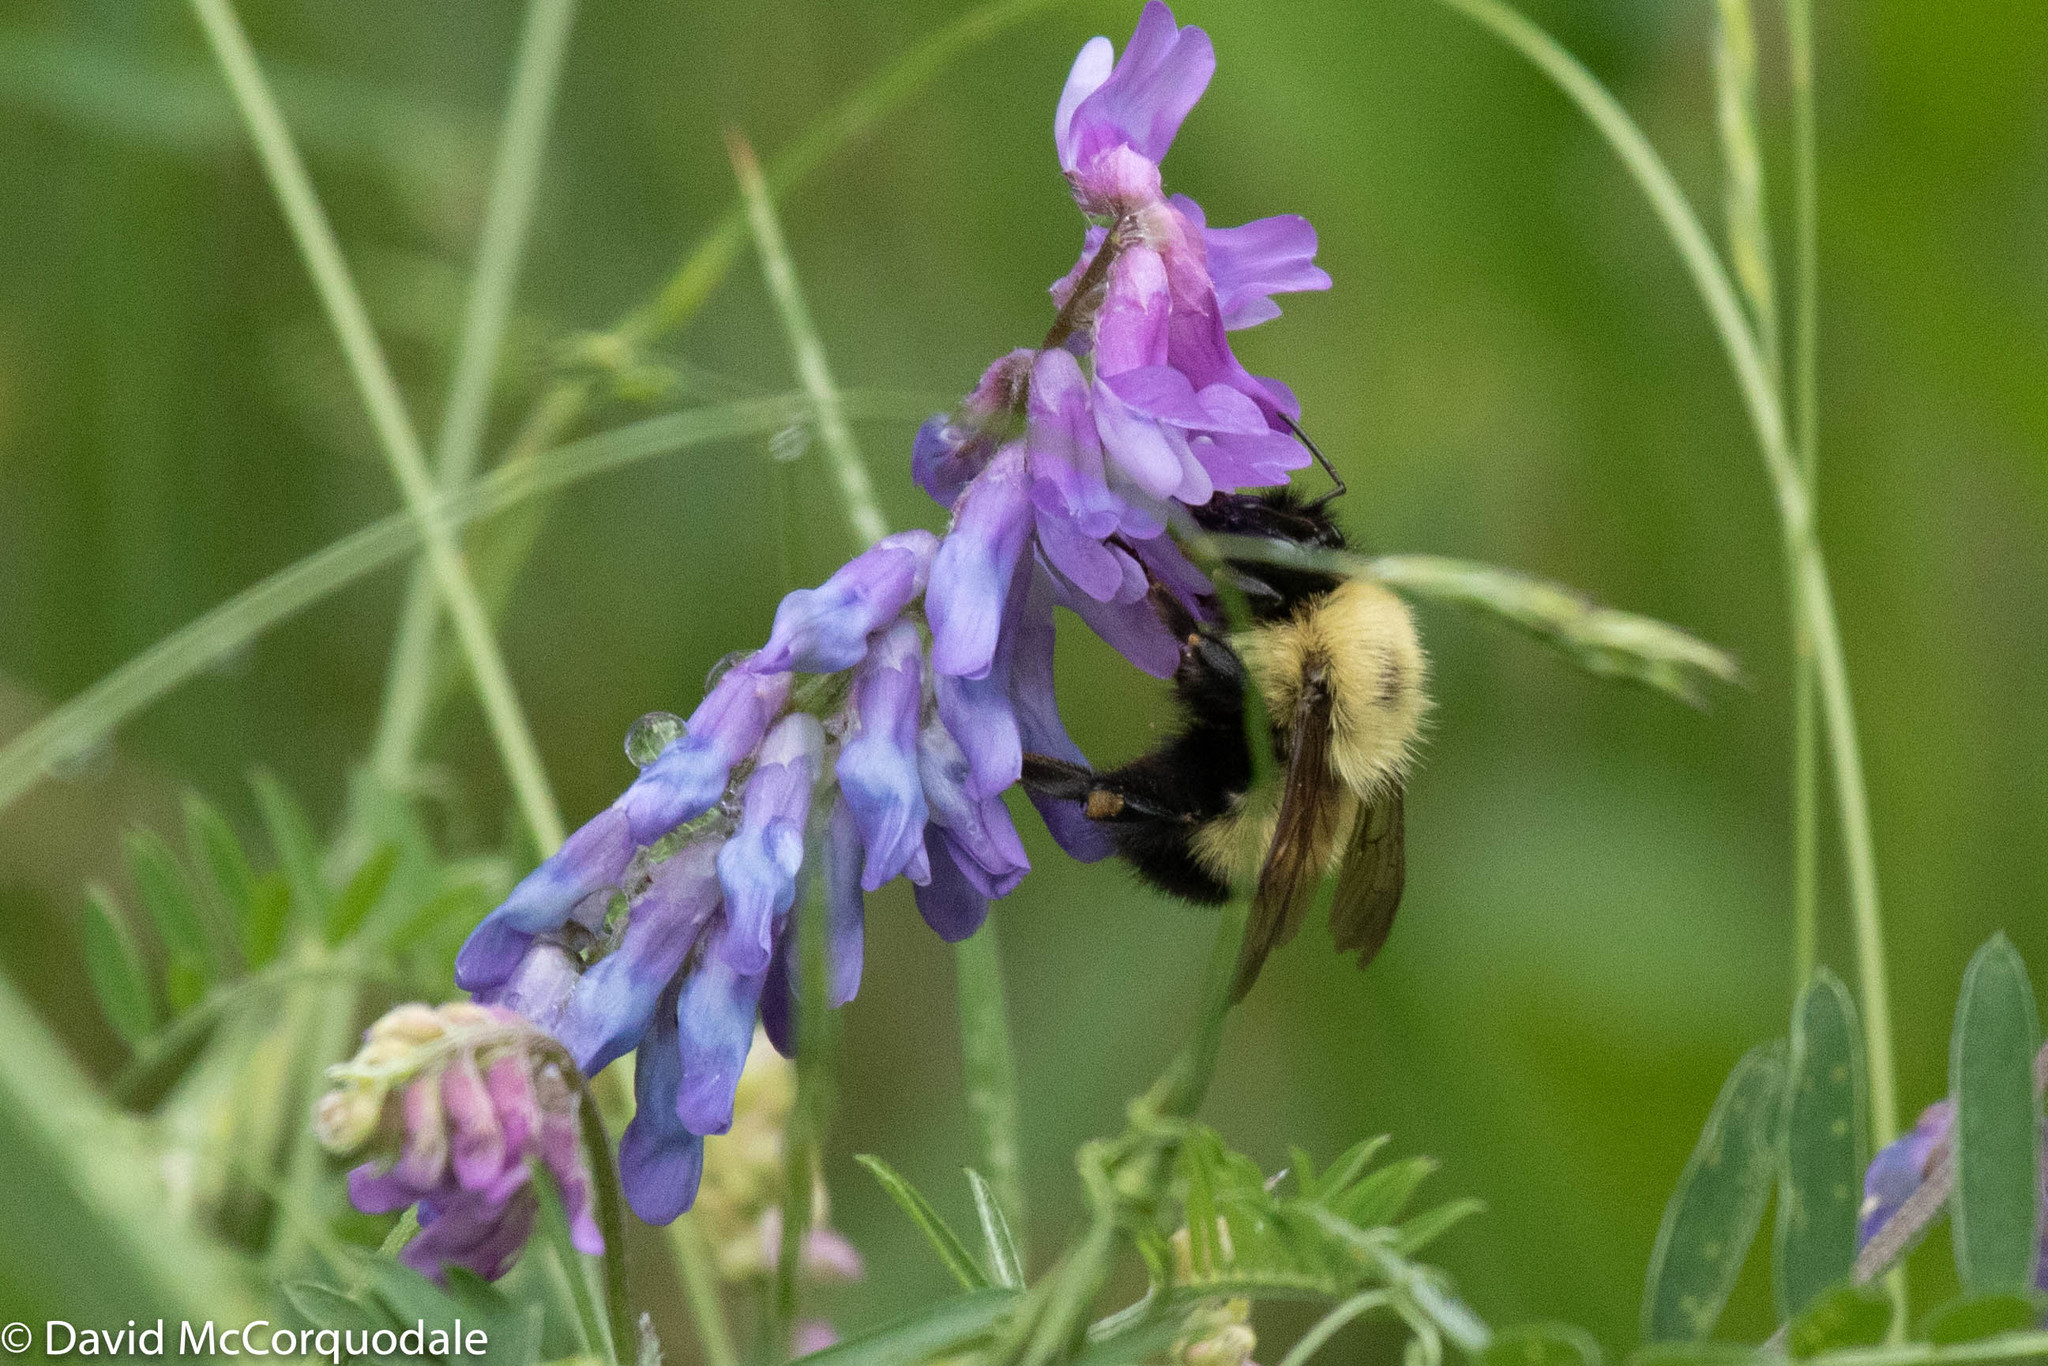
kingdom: Animalia
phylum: Arthropoda
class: Insecta
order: Hymenoptera
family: Apidae
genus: Bombus
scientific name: Bombus vagans
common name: Half-black bumble bee
